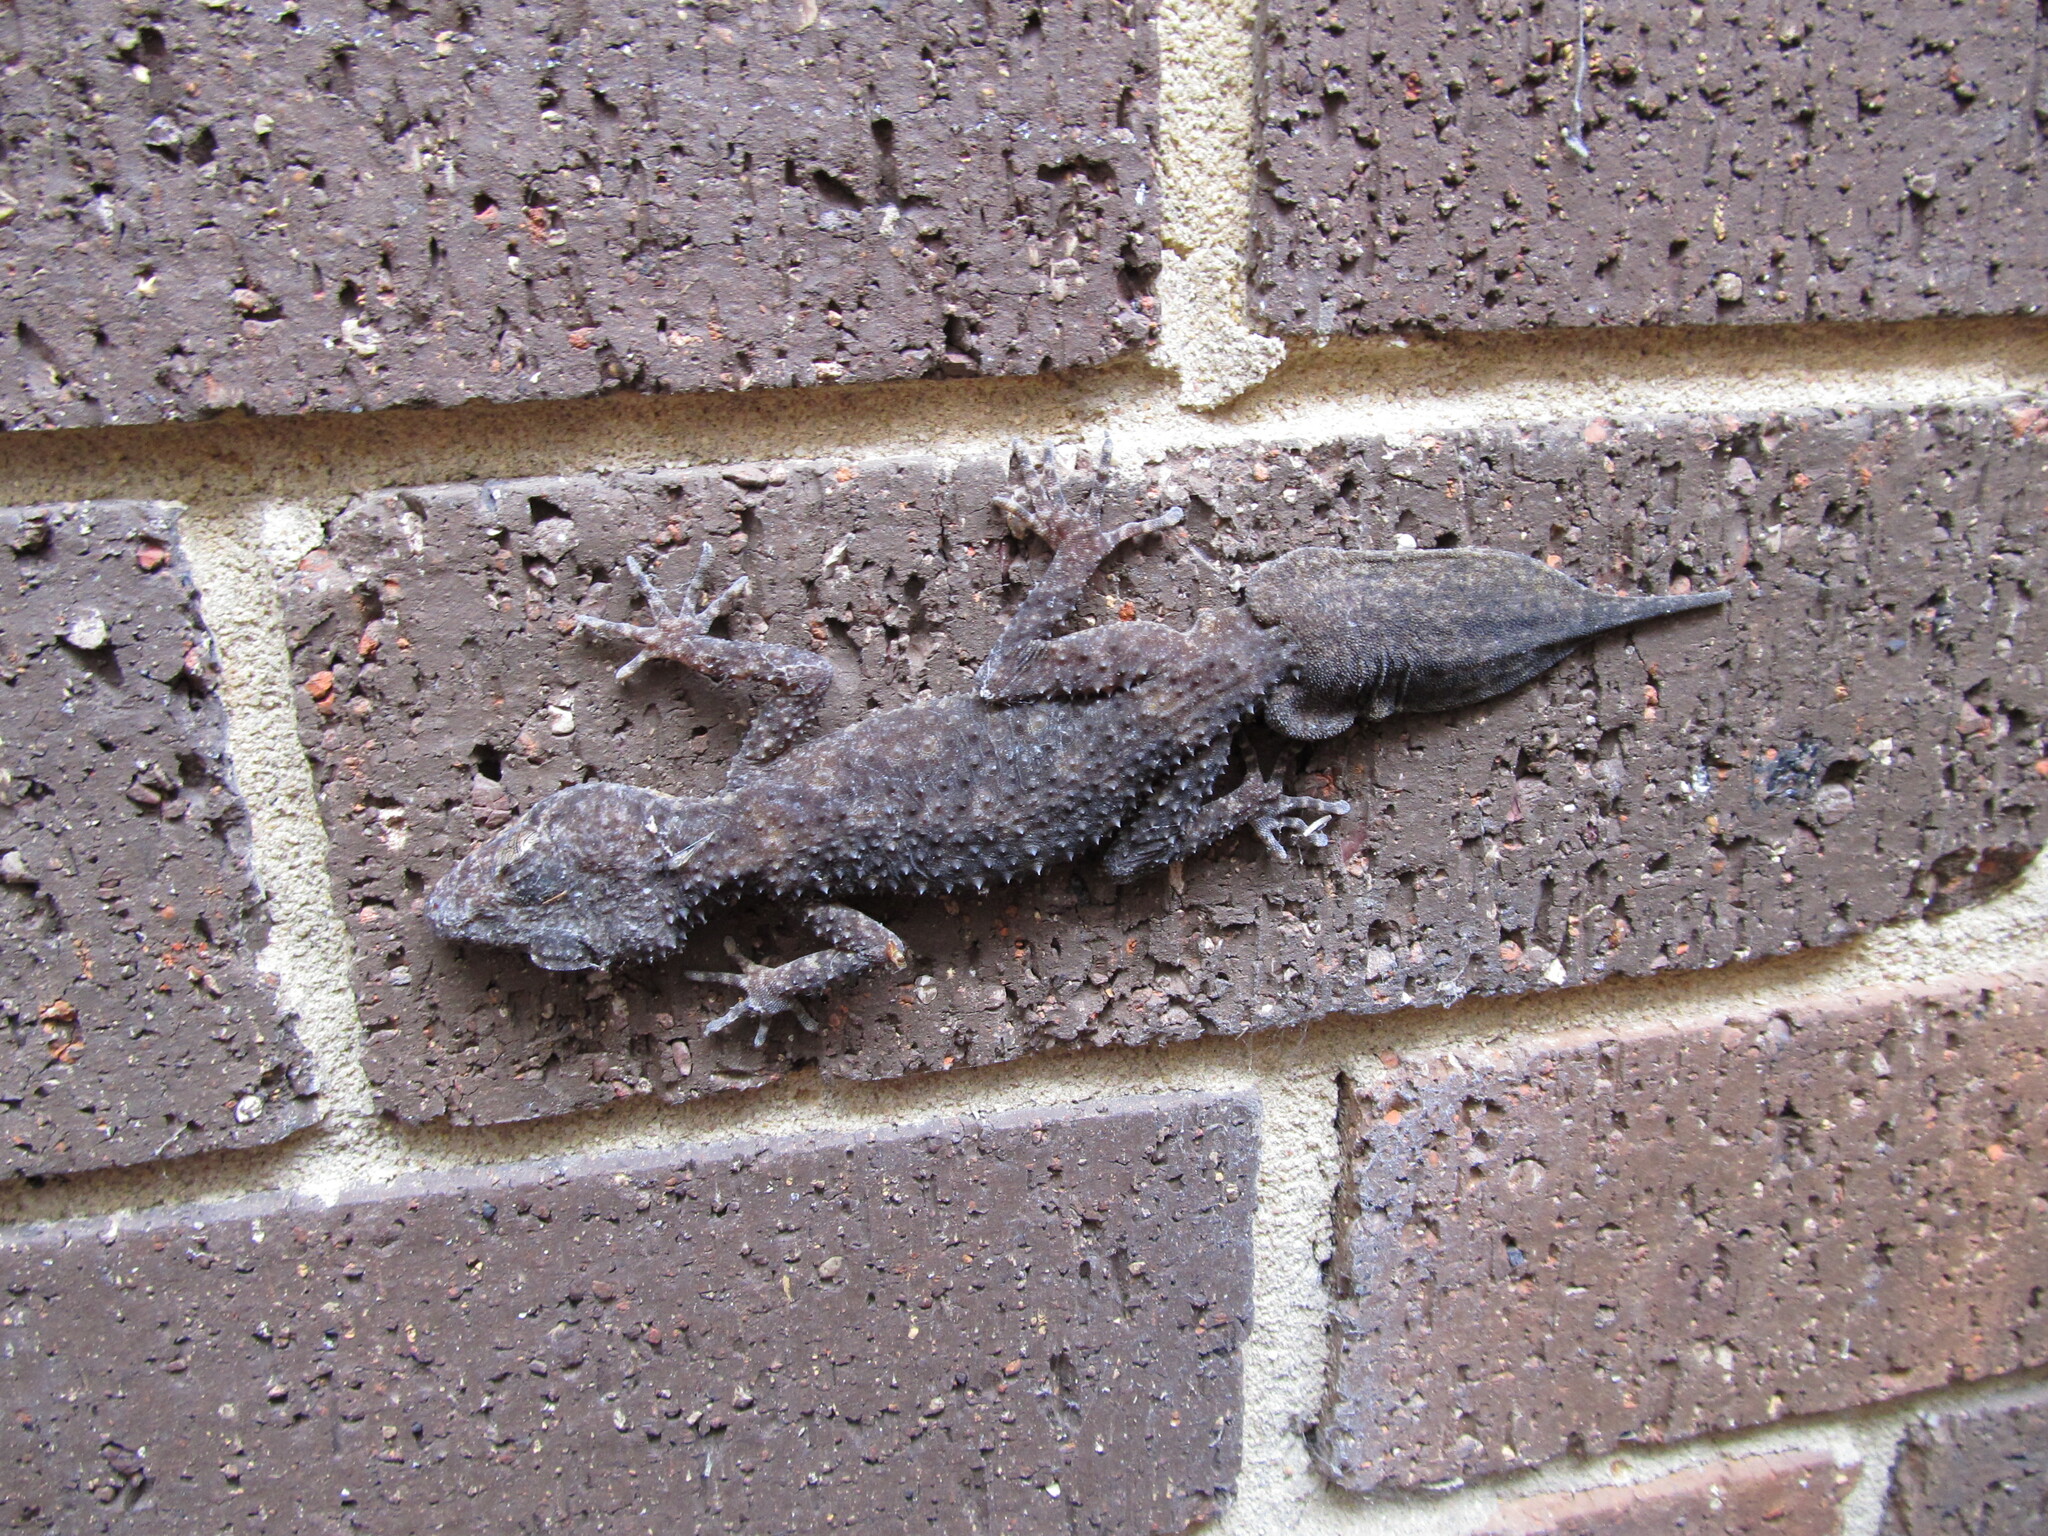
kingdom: Animalia
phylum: Chordata
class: Squamata
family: Carphodactylidae
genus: Phyllurus
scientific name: Phyllurus platurus
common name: Broad-tailed gecko
